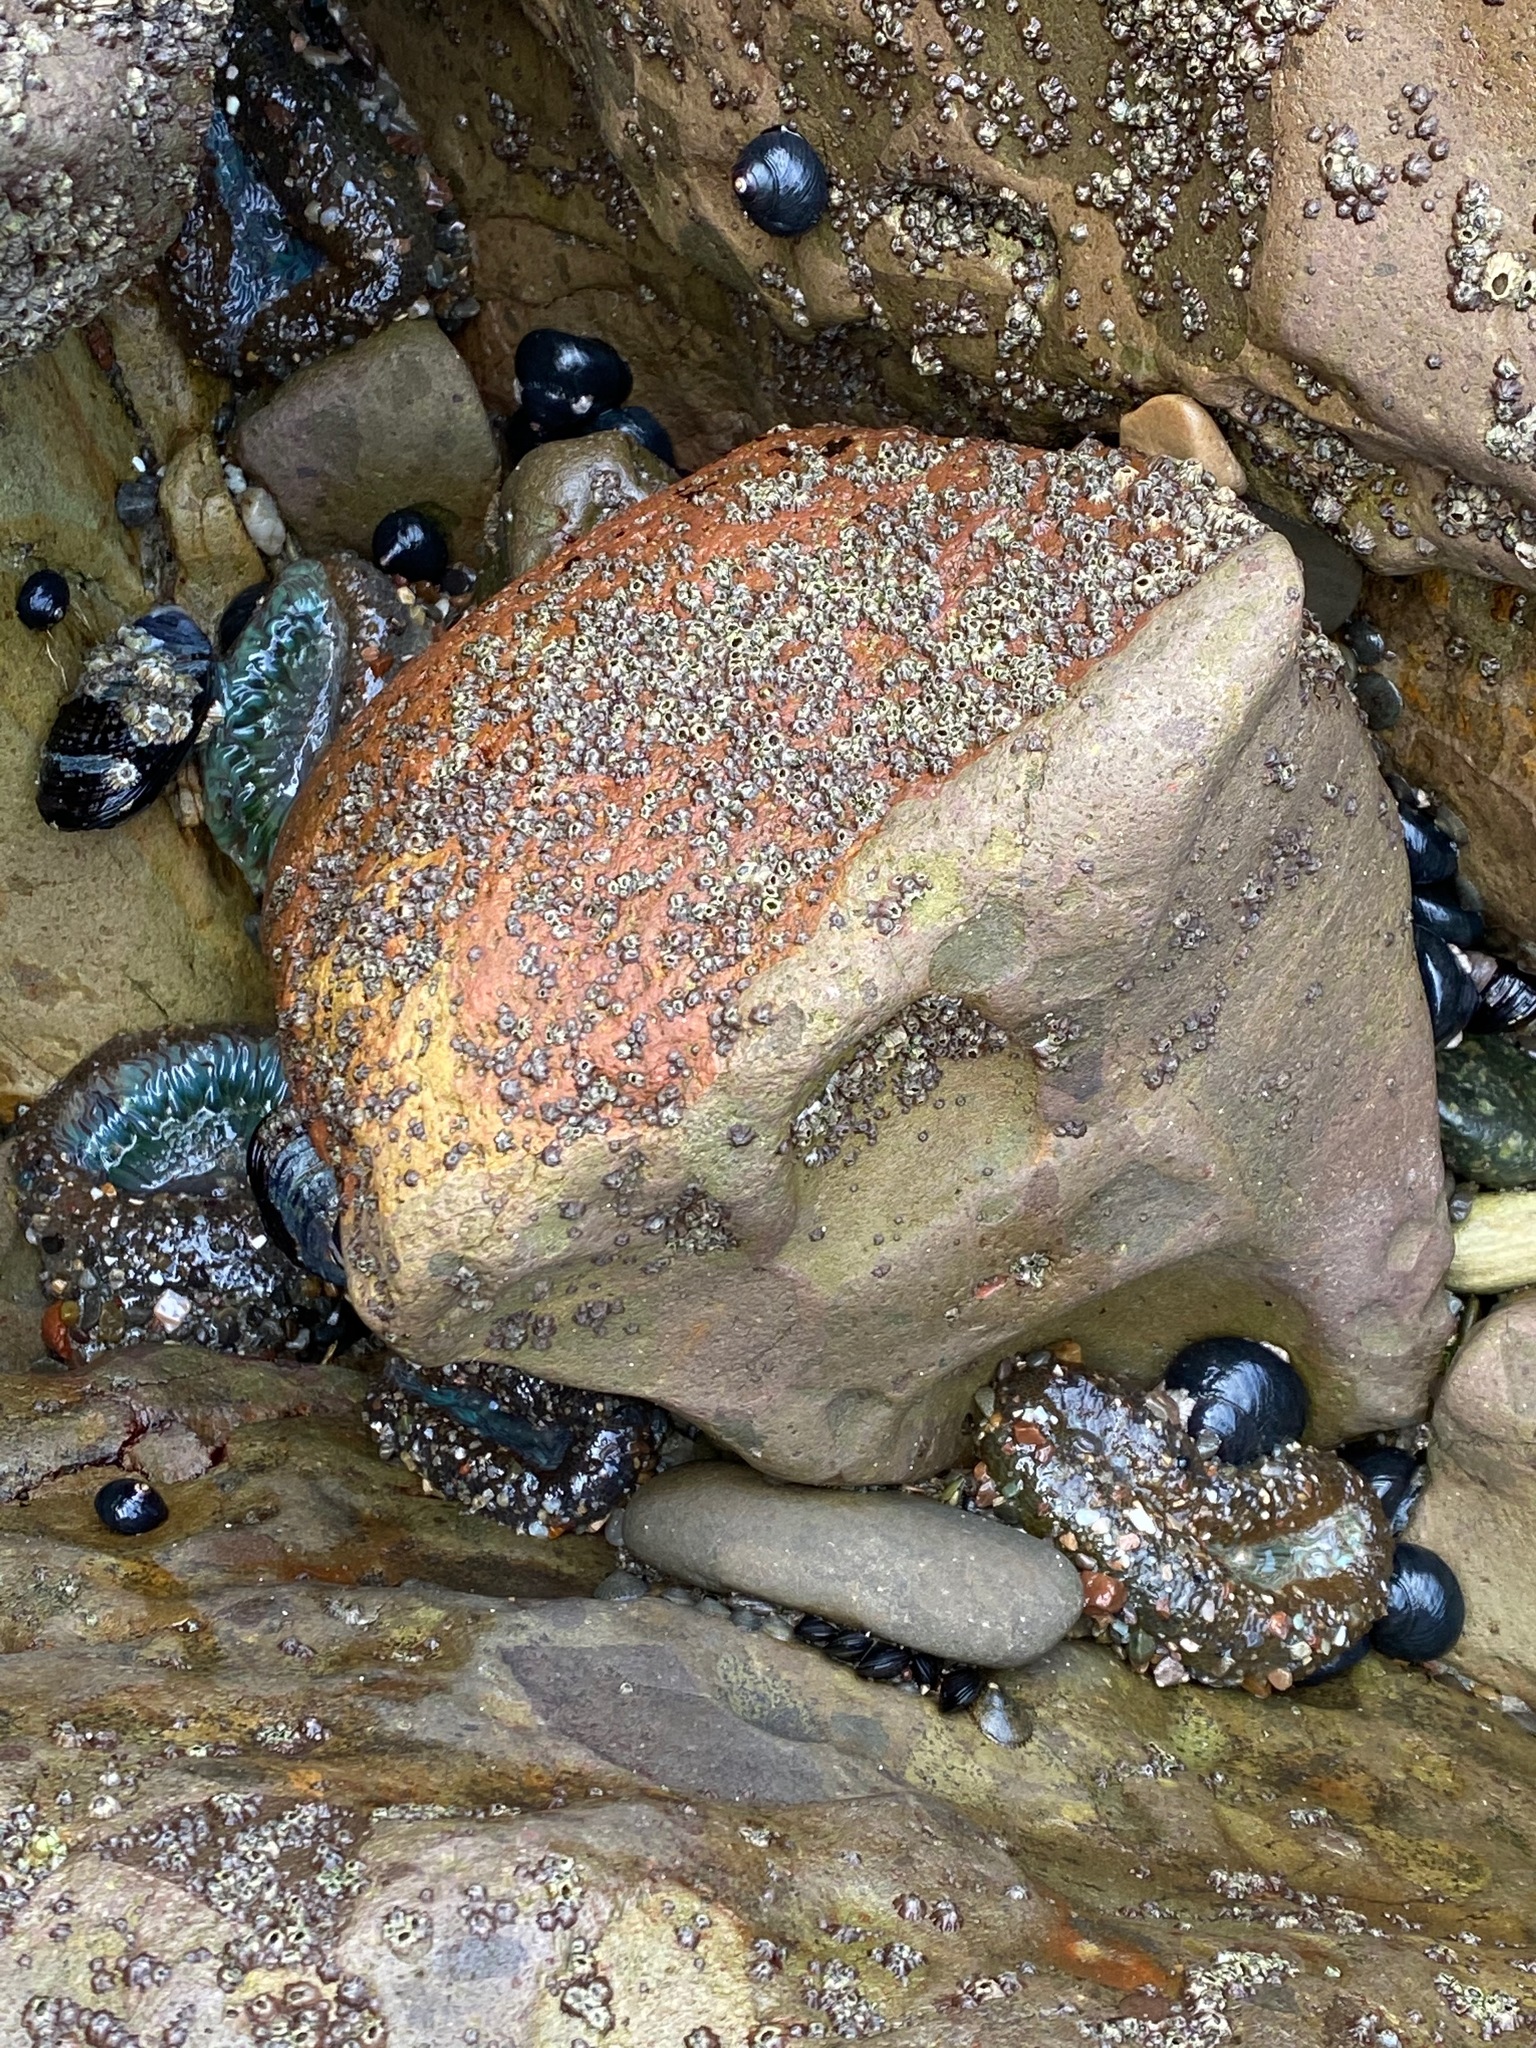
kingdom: Animalia
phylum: Cnidaria
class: Anthozoa
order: Actiniaria
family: Actiniidae
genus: Anthopleura
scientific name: Anthopleura sola
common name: Sun anemone
